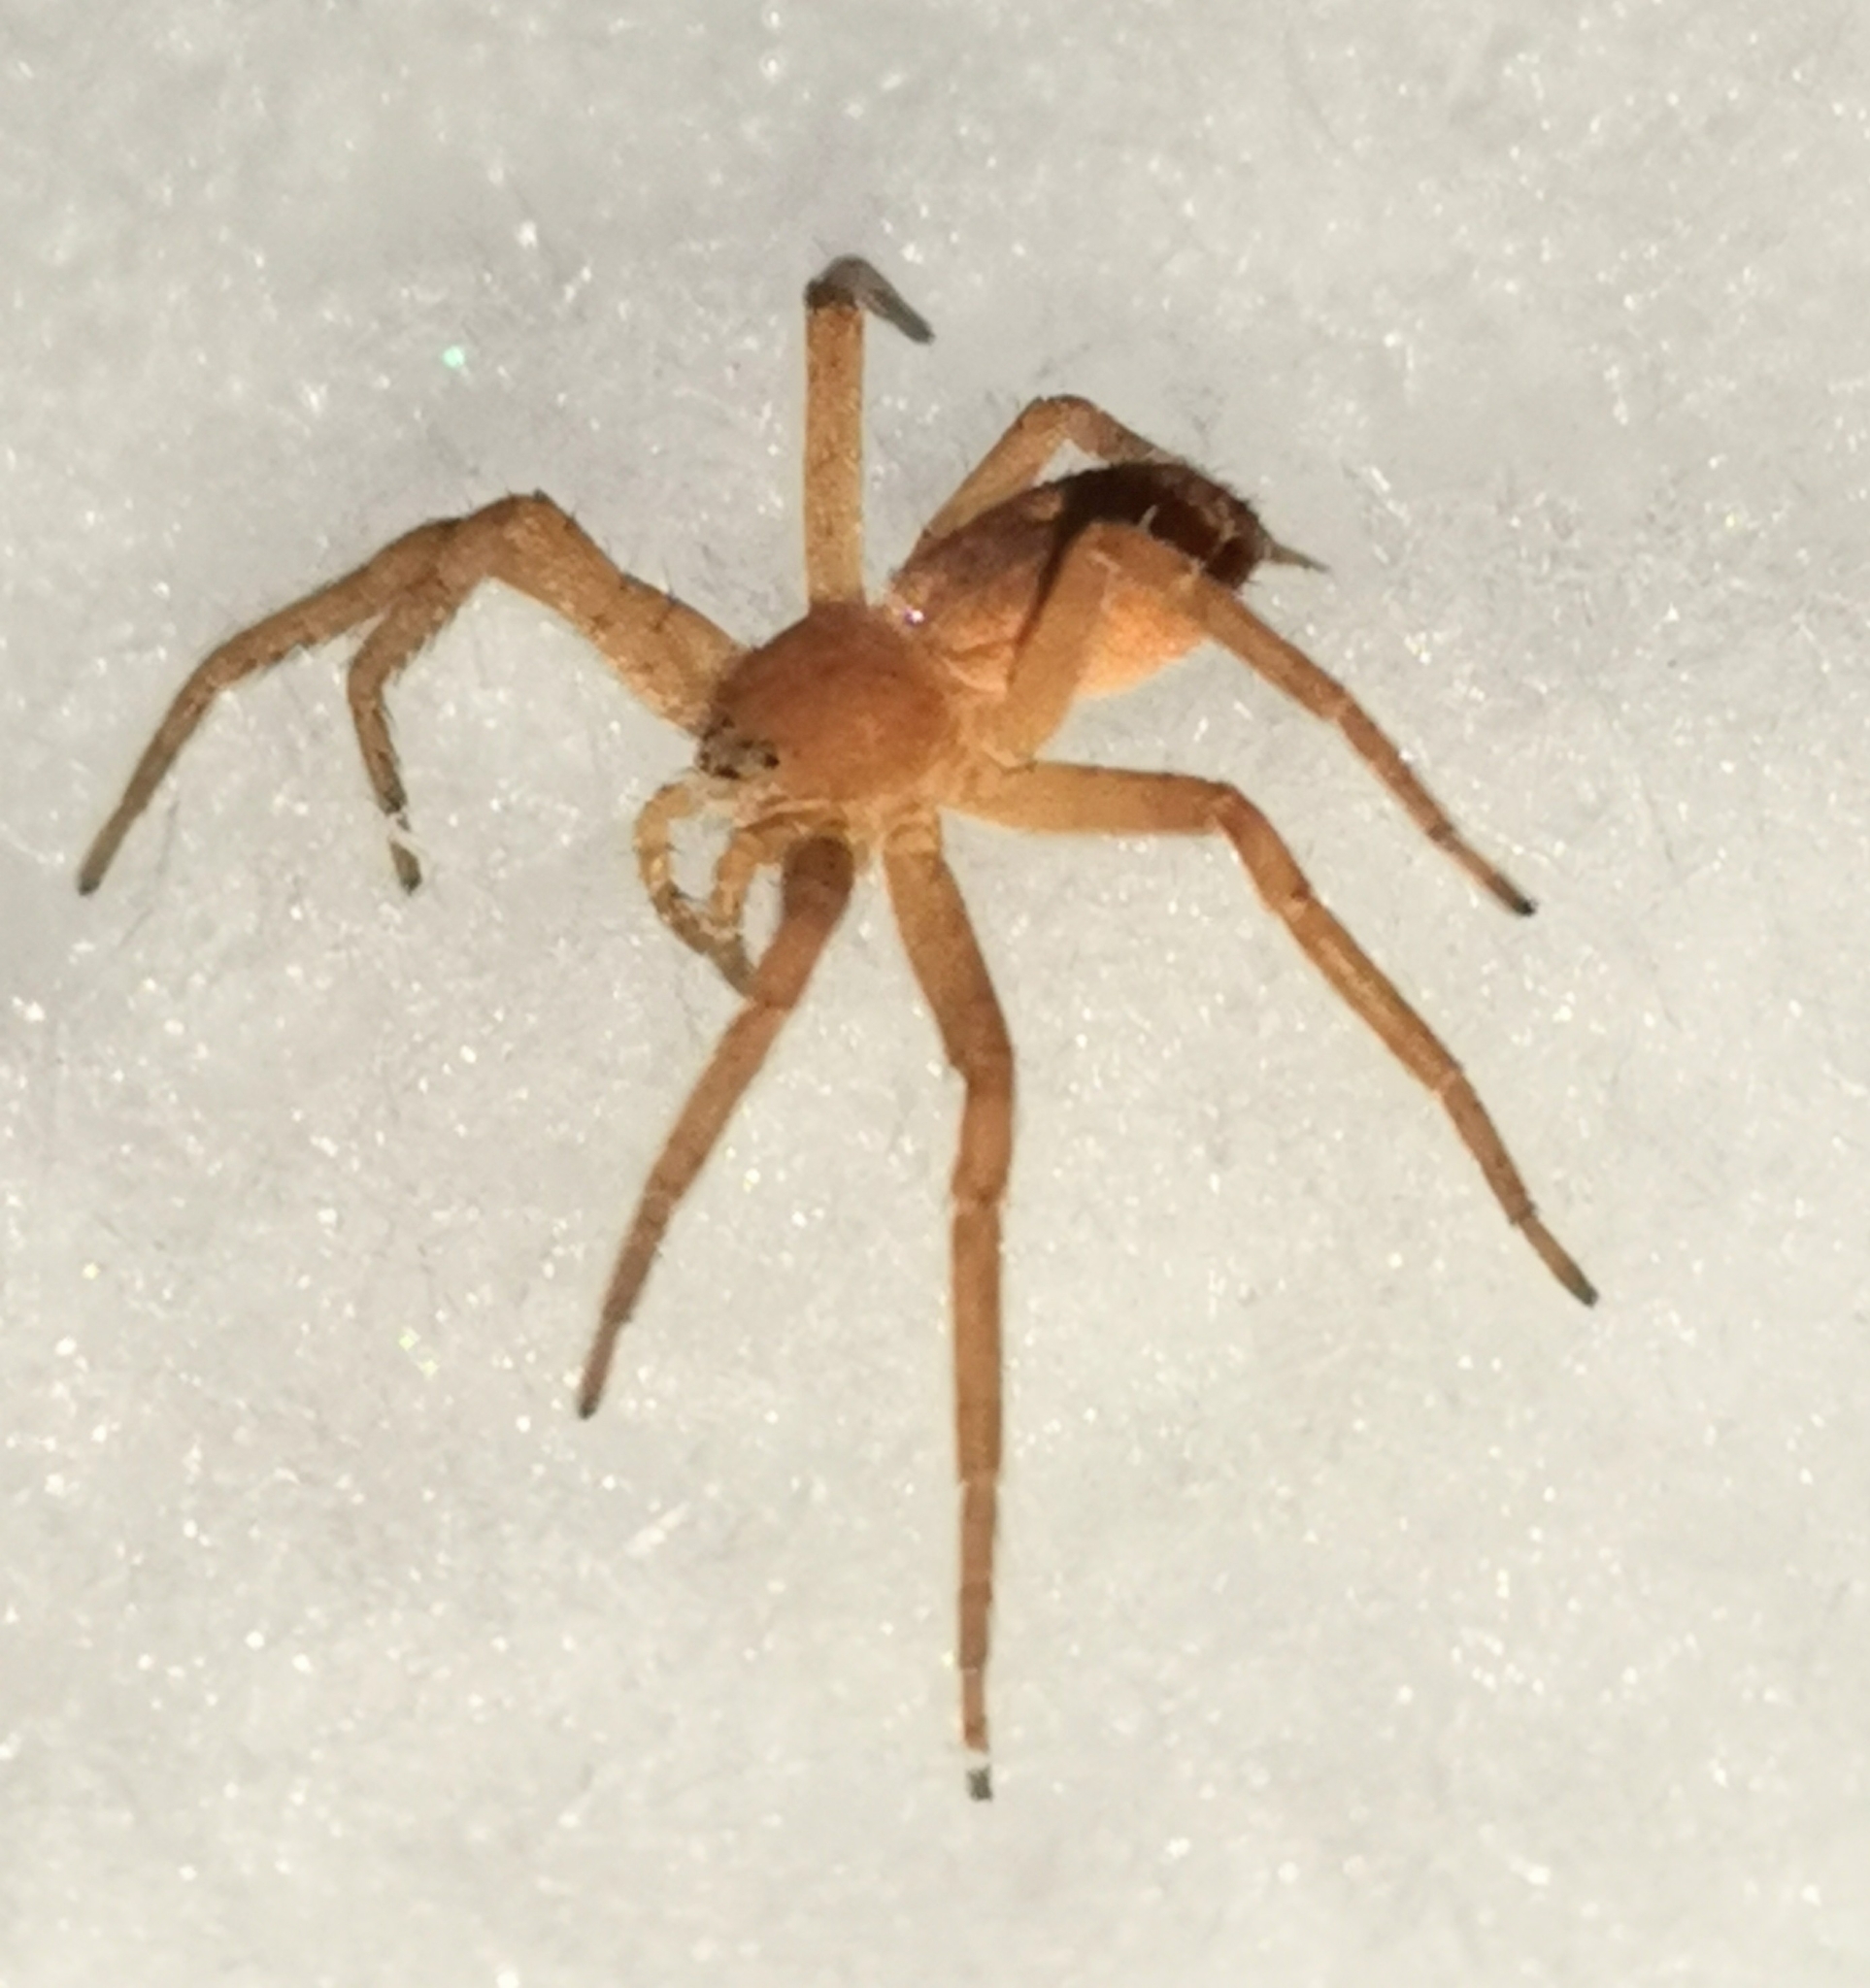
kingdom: Animalia
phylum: Arthropoda
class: Arachnida
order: Araneae
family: Philodromidae
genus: Philodromus
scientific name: Philodromus fuscomarginatus
